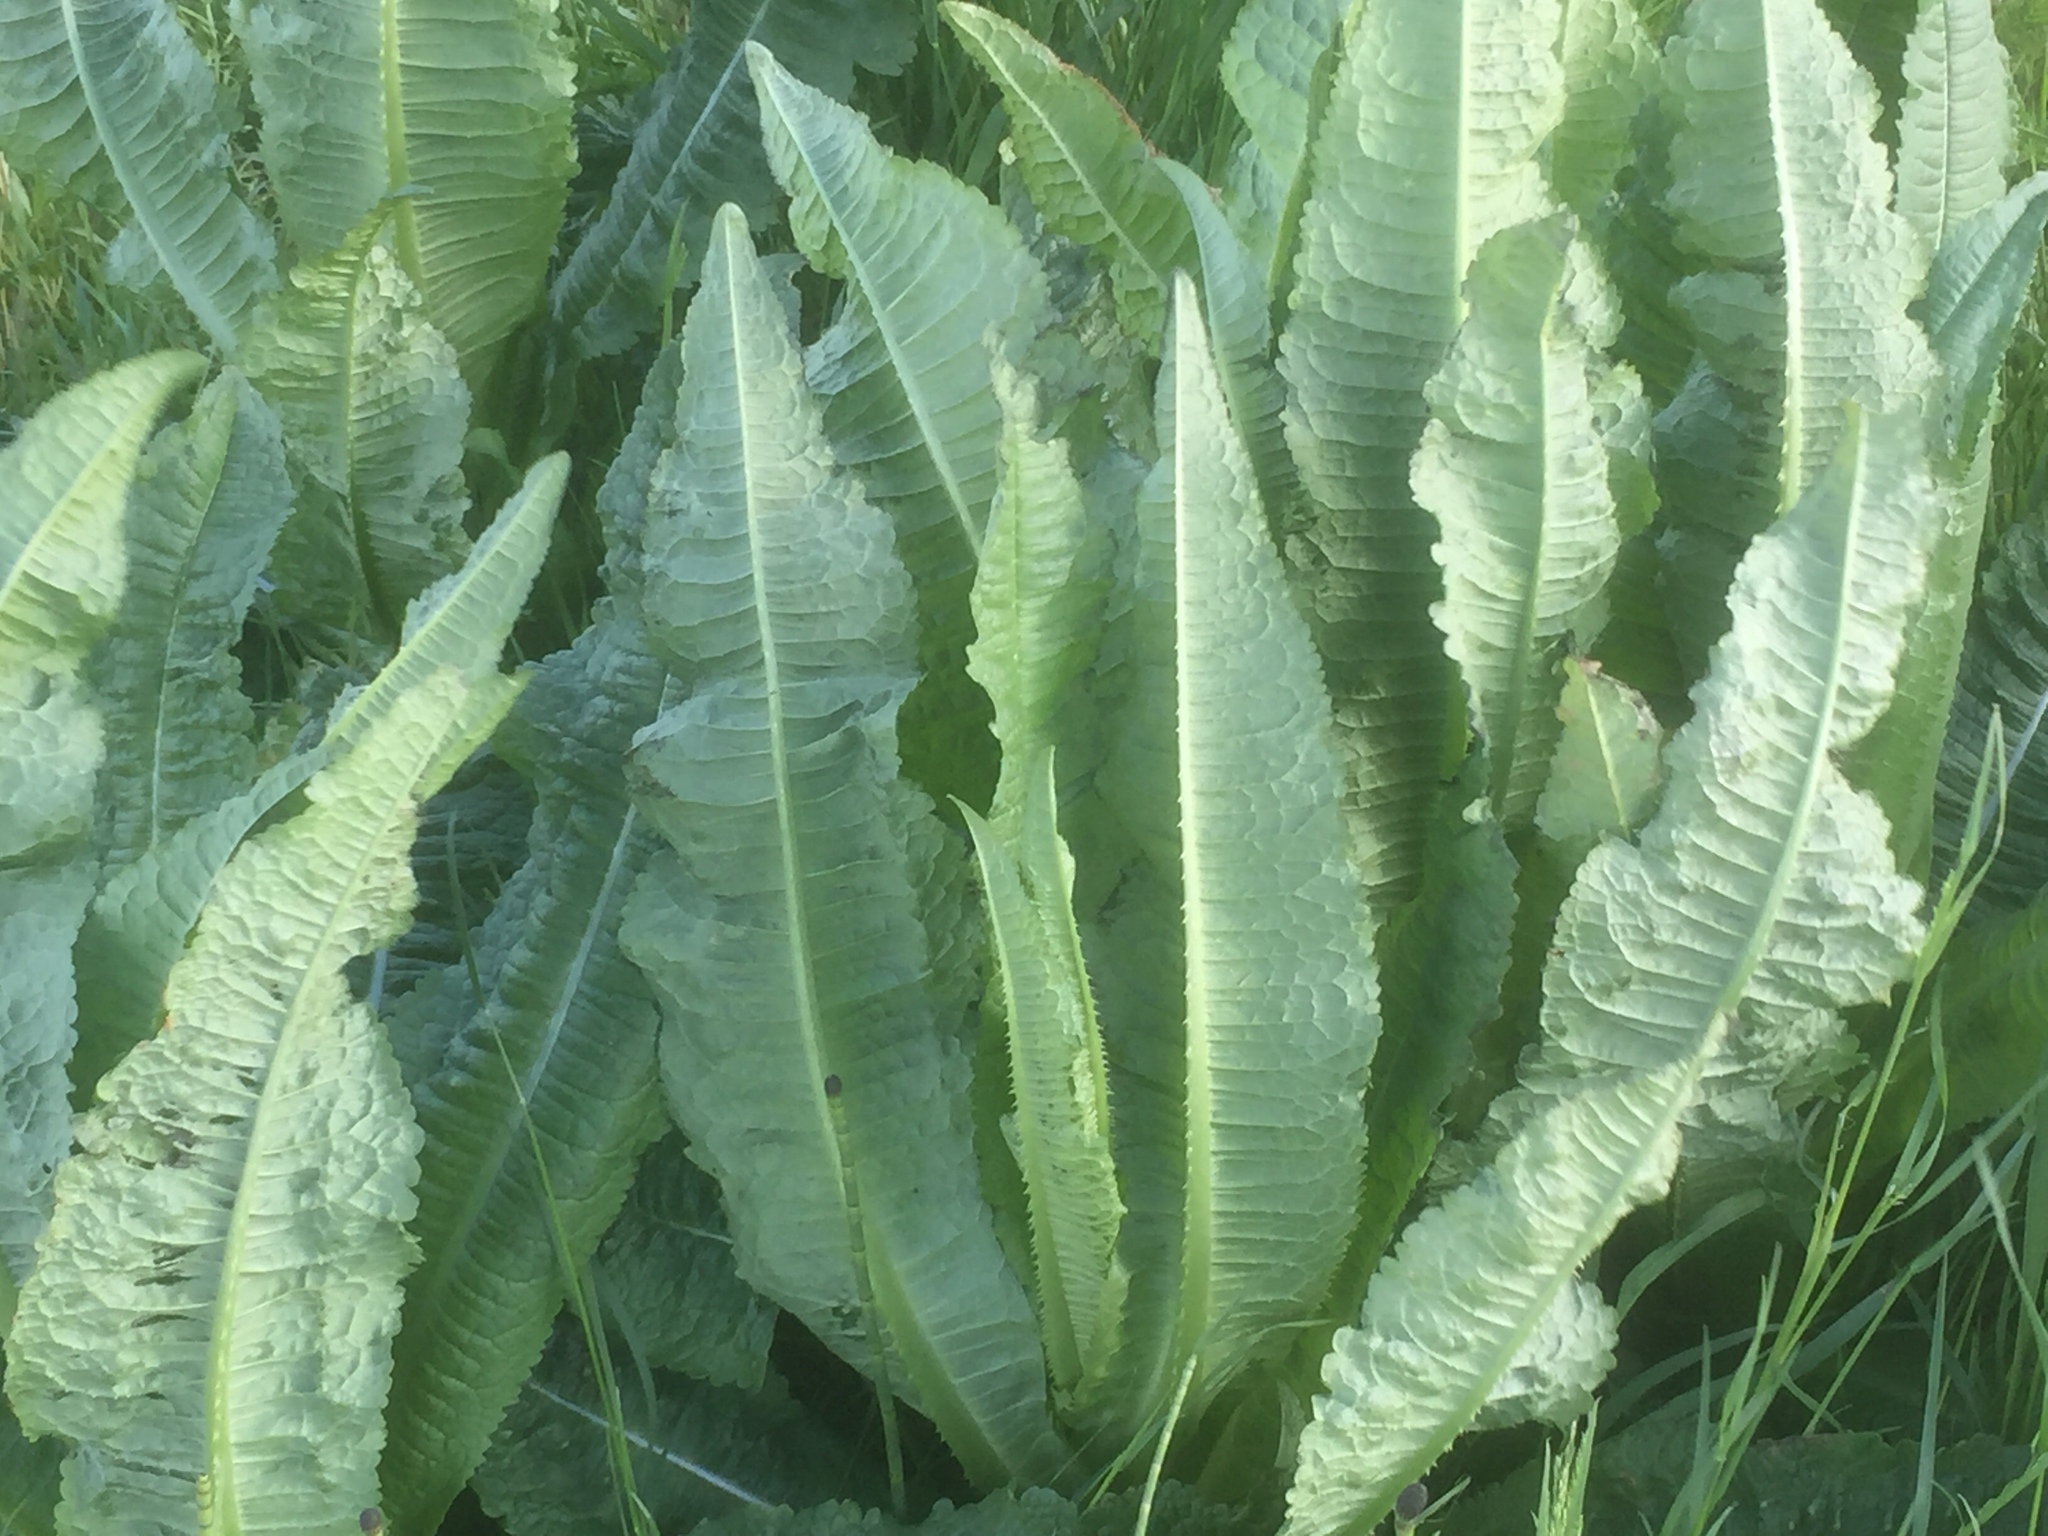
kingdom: Plantae
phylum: Tracheophyta
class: Magnoliopsida
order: Dipsacales
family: Caprifoliaceae
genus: Dipsacus
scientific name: Dipsacus fullonum
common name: Teasel
